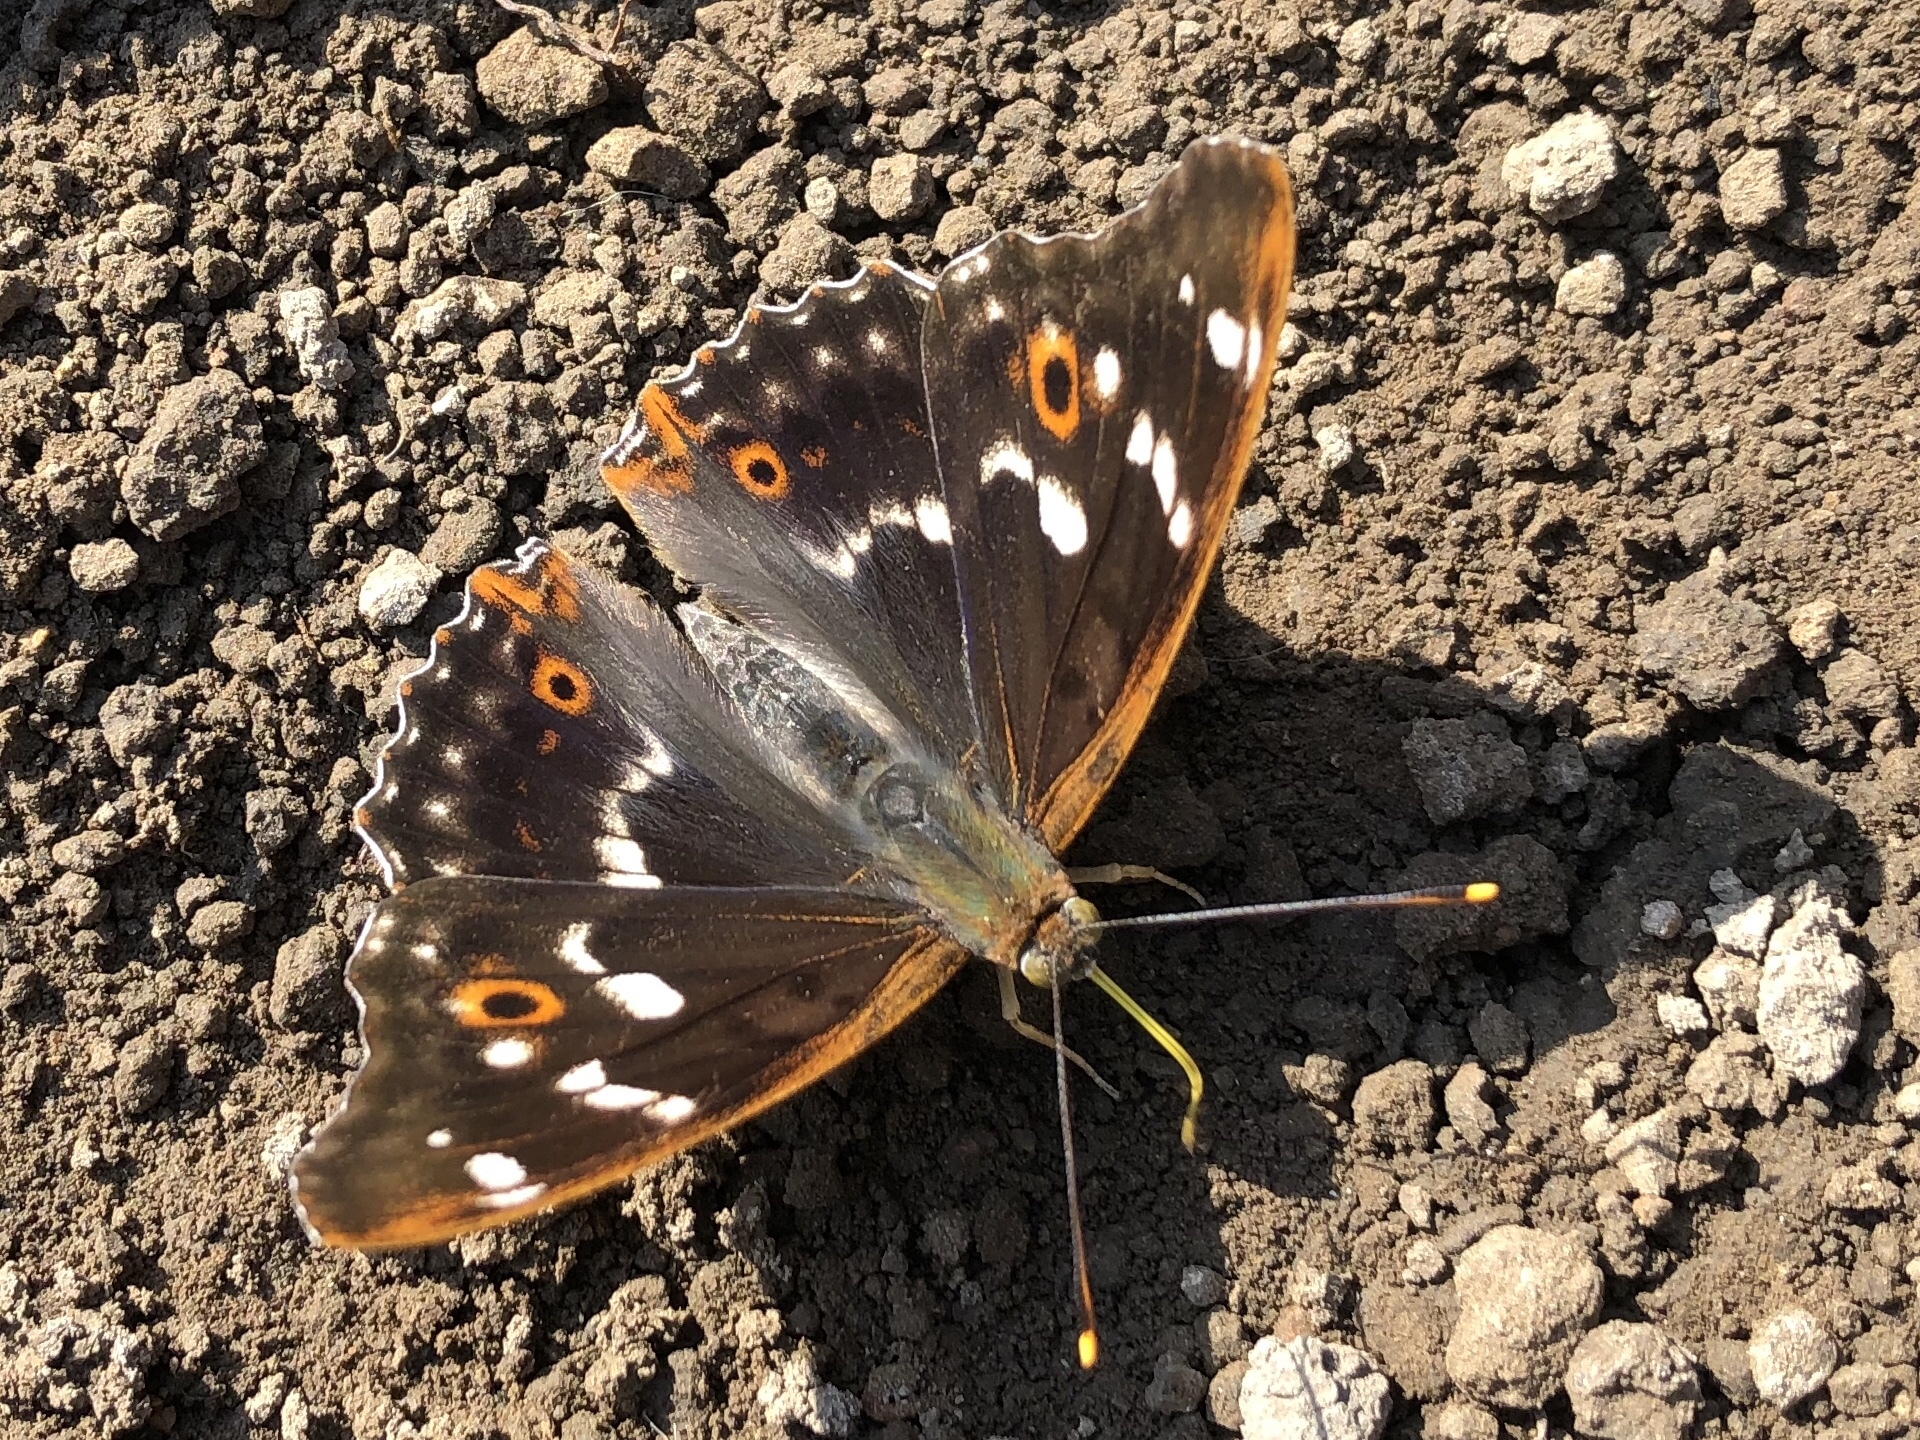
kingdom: Animalia
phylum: Arthropoda
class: Insecta
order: Lepidoptera
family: Nymphalidae
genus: Apatura
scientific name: Apatura ilia
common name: Lesser purple emperor
